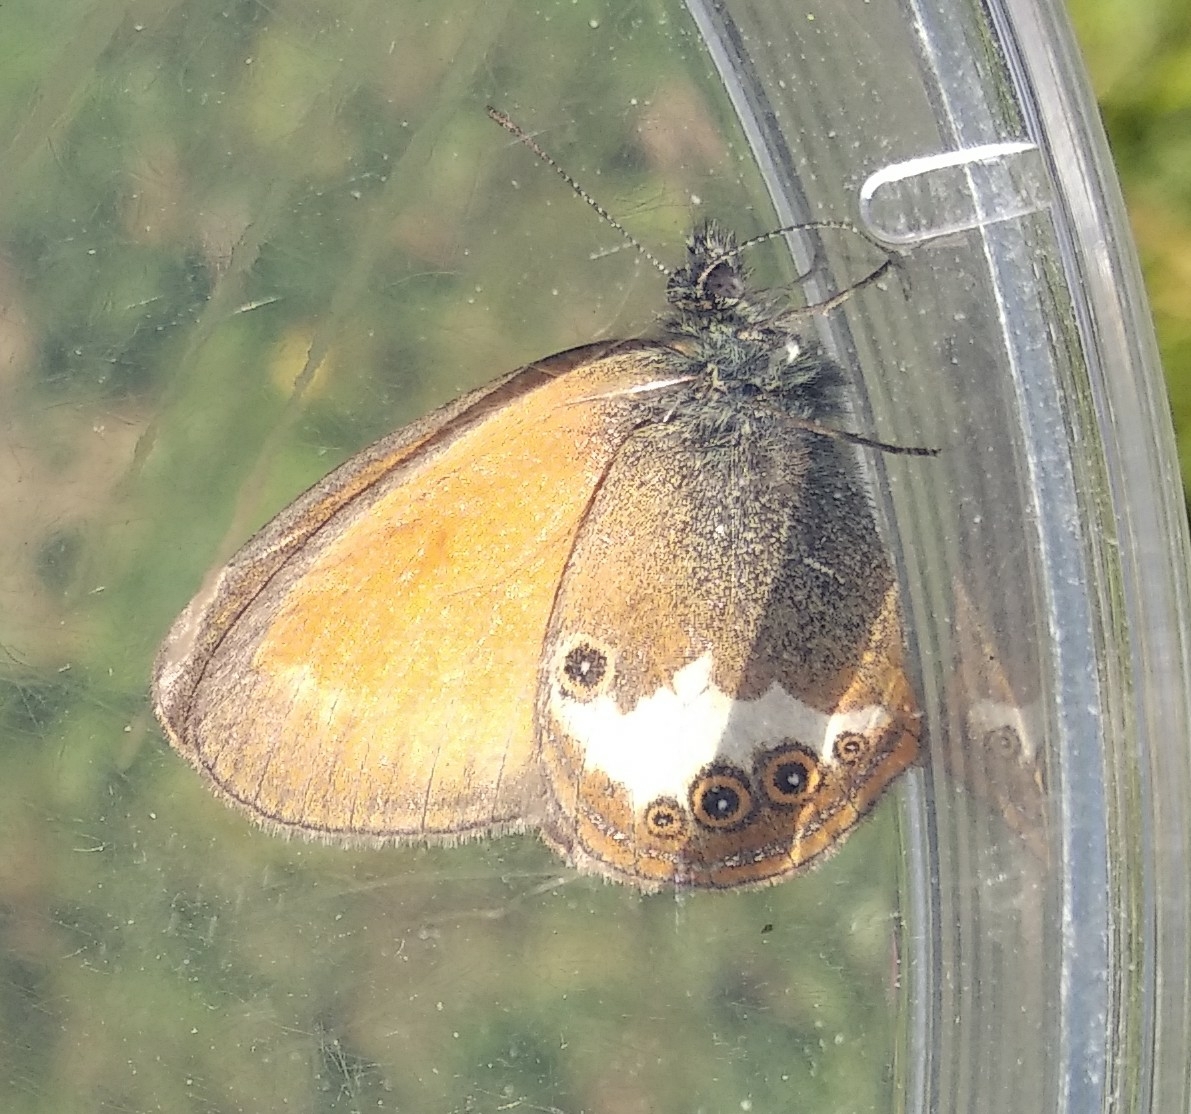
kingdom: Animalia
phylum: Arthropoda
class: Insecta
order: Lepidoptera
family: Nymphalidae
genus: Coenonympha
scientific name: Coenonympha arcania
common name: Pearly heath
